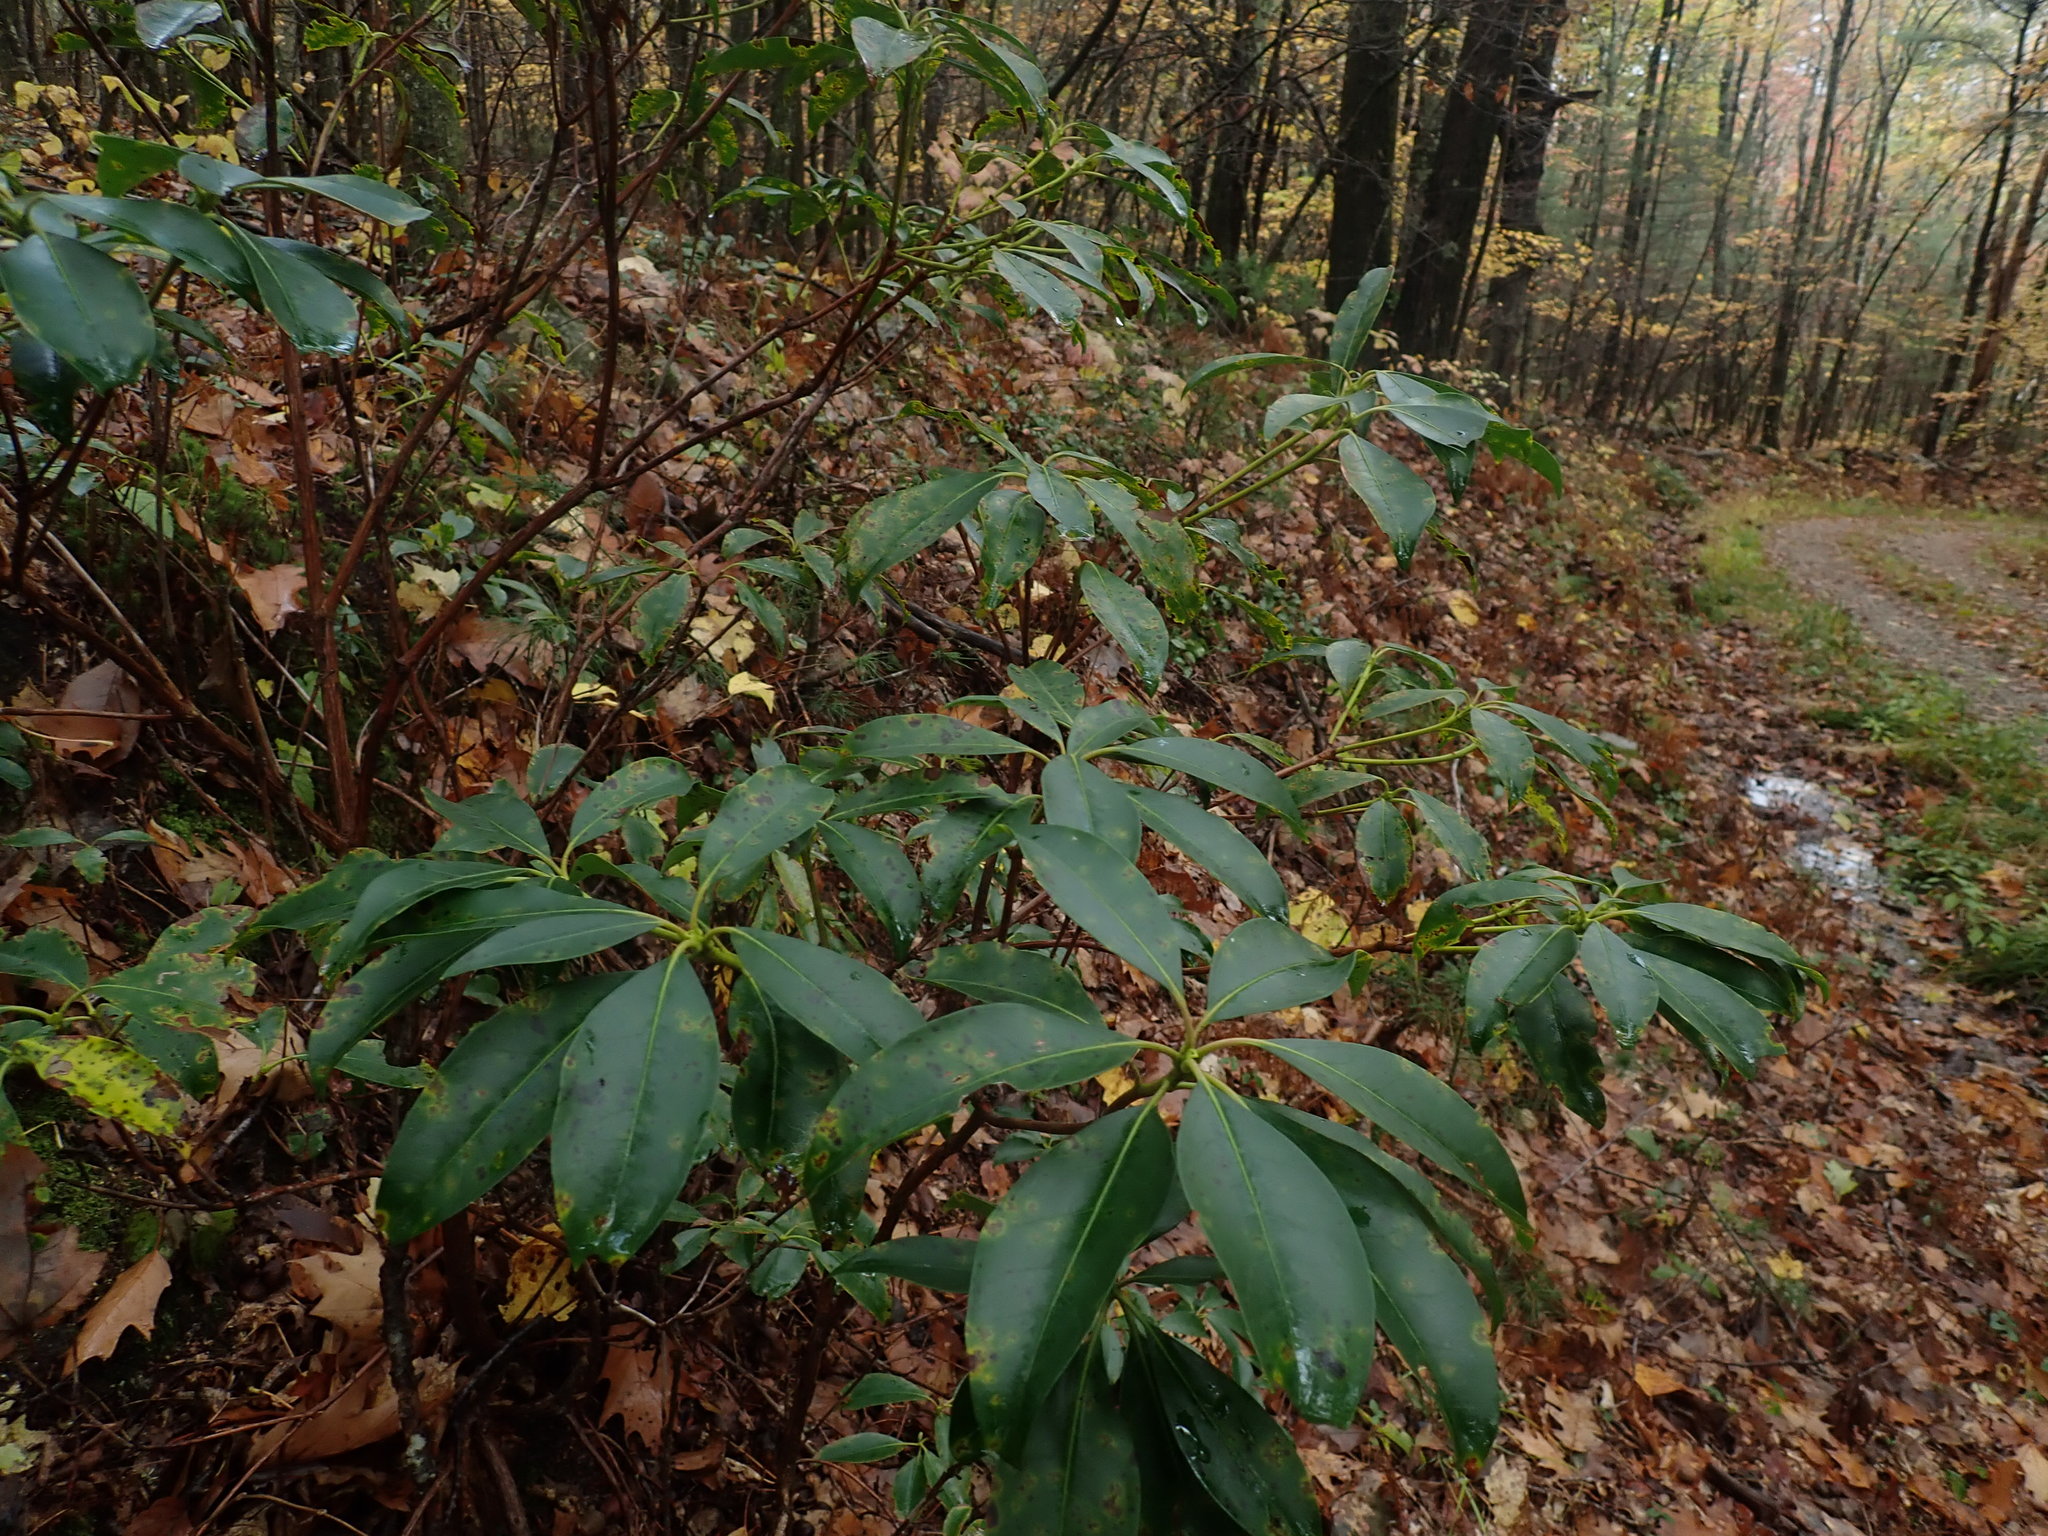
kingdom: Plantae
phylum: Tracheophyta
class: Magnoliopsida
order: Ericales
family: Ericaceae
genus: Kalmia
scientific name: Kalmia latifolia
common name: Mountain-laurel
